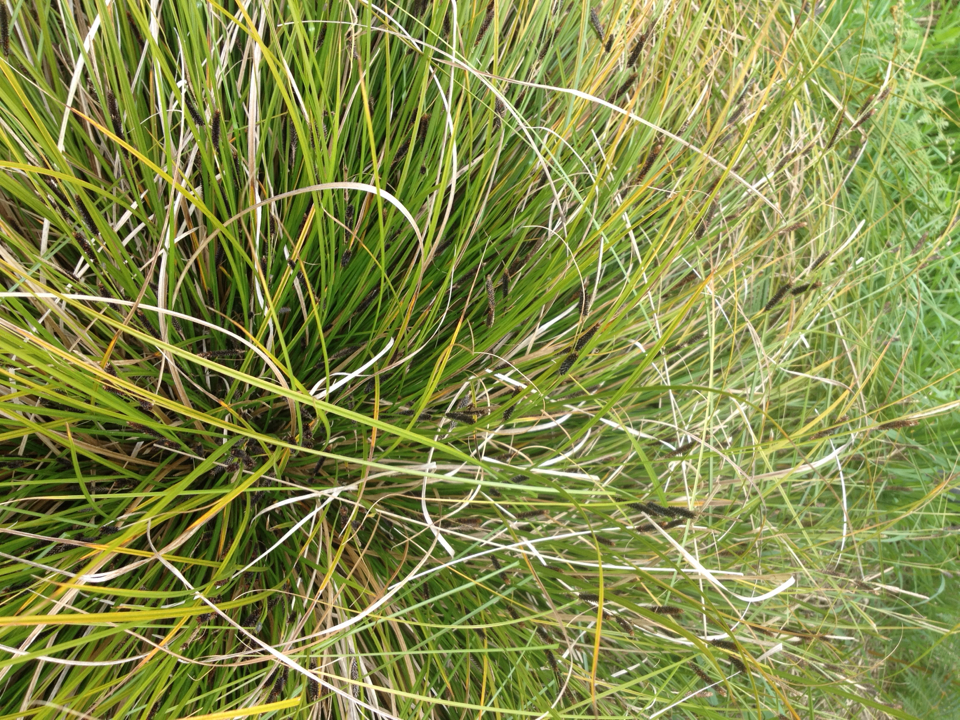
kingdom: Plantae
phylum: Tracheophyta
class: Liliopsida
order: Poales
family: Cyperaceae
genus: Carex
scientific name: Carex flagellifera
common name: Glen murray tussock
